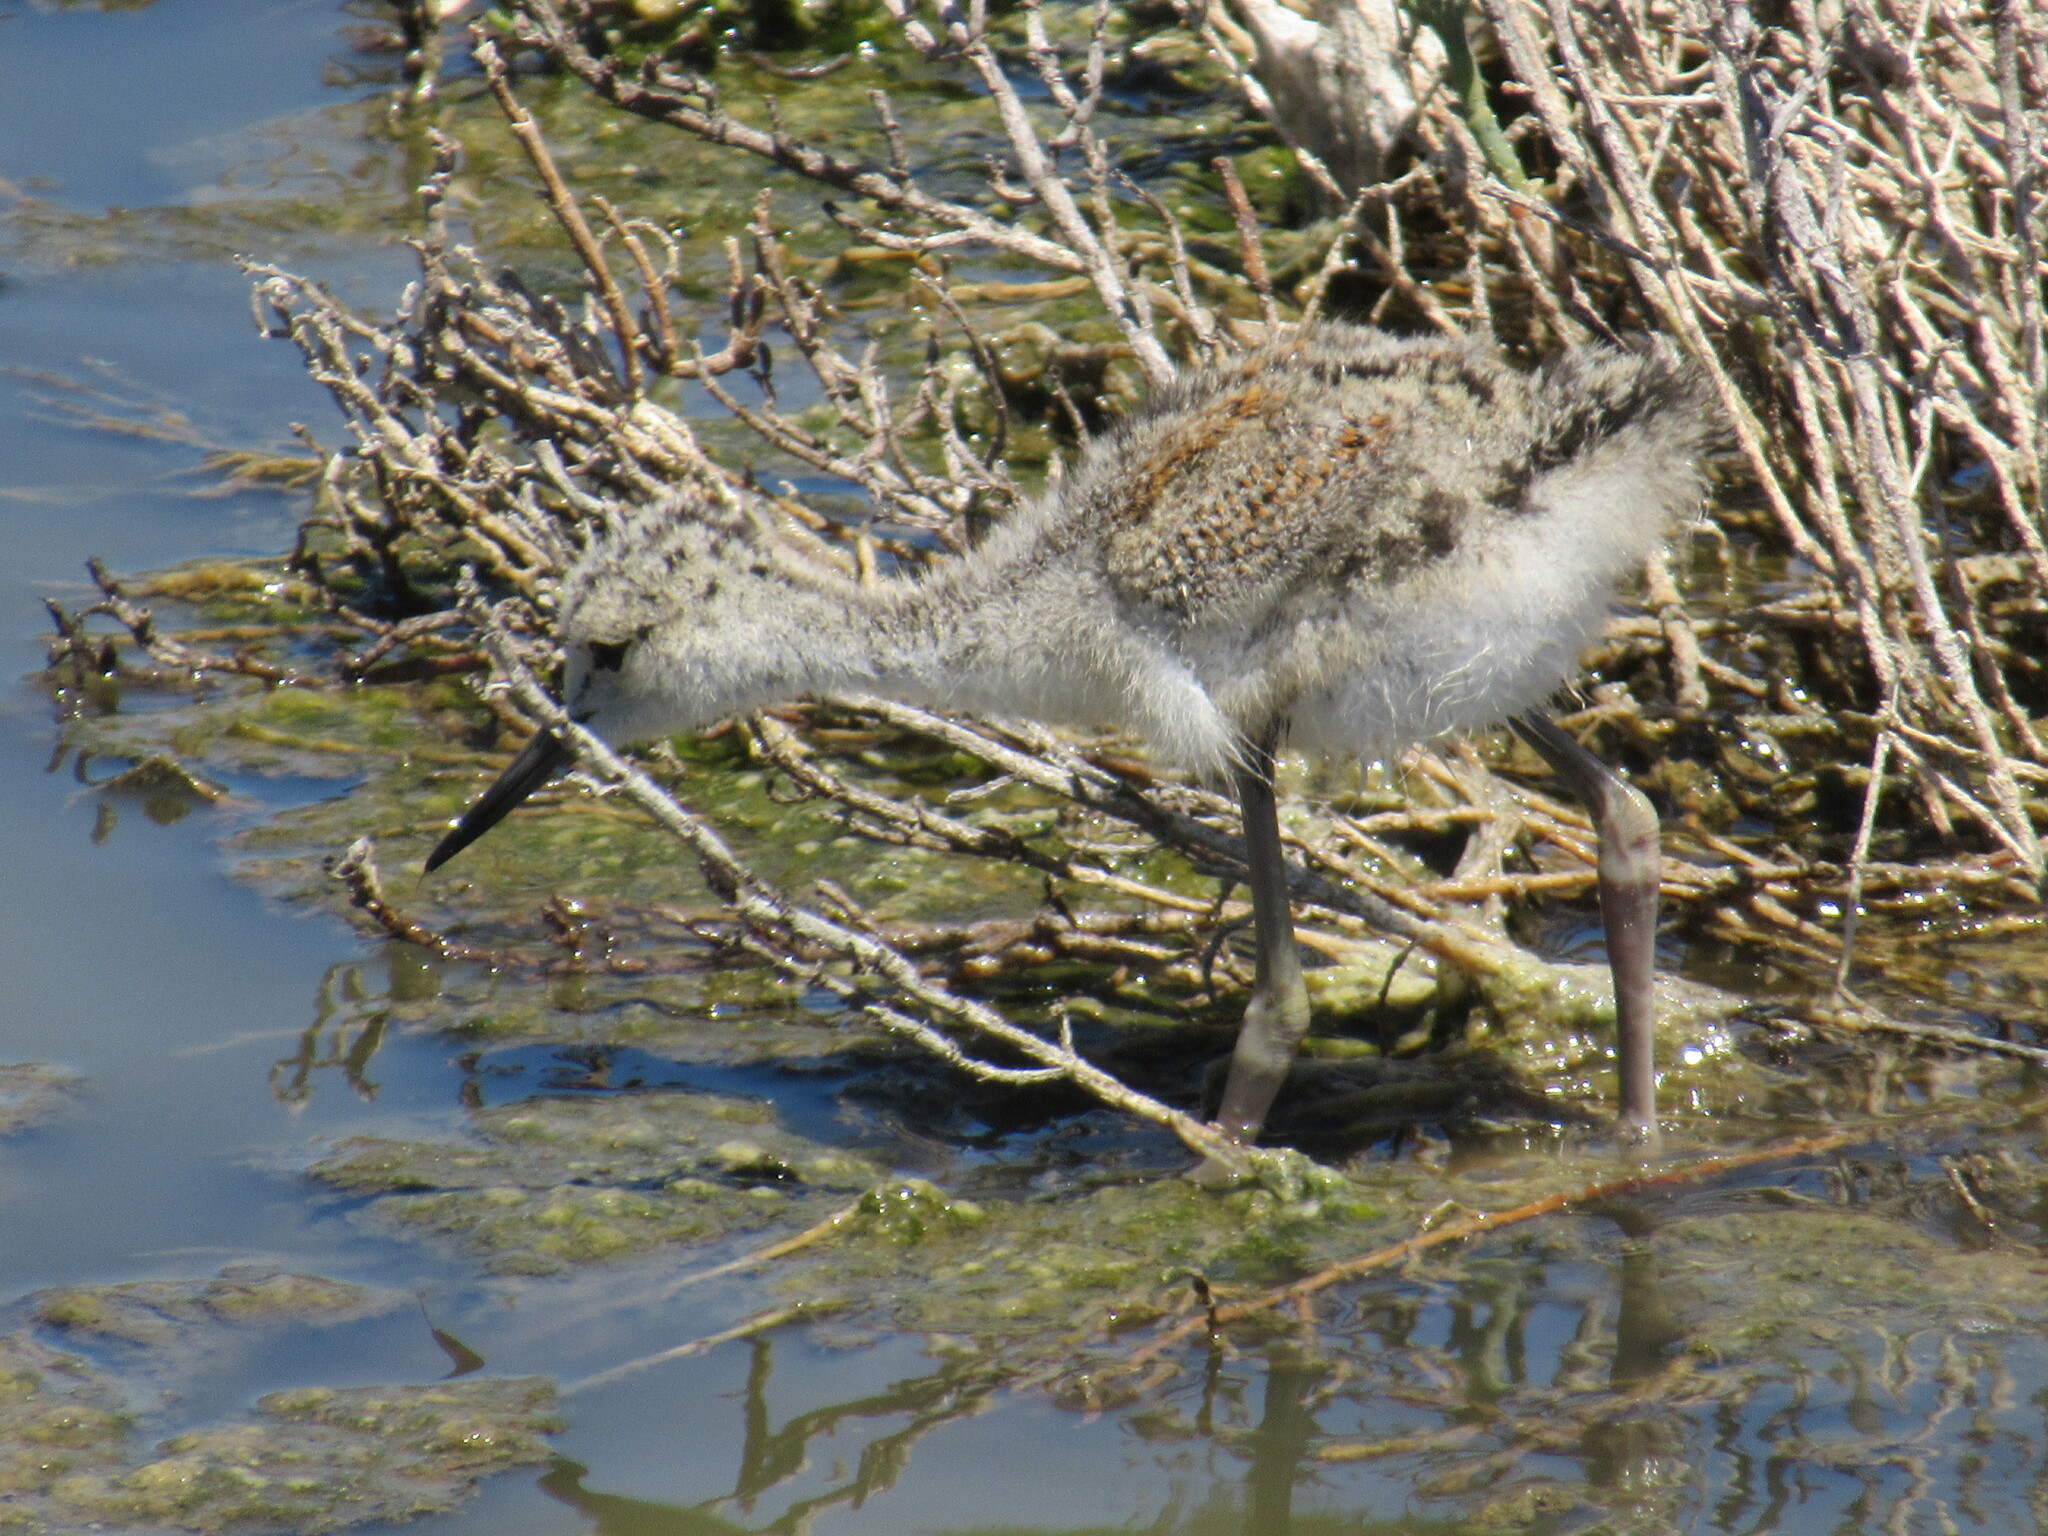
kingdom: Animalia
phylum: Chordata
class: Aves
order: Charadriiformes
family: Recurvirostridae
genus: Himantopus
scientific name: Himantopus mexicanus
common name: Black-necked stilt
